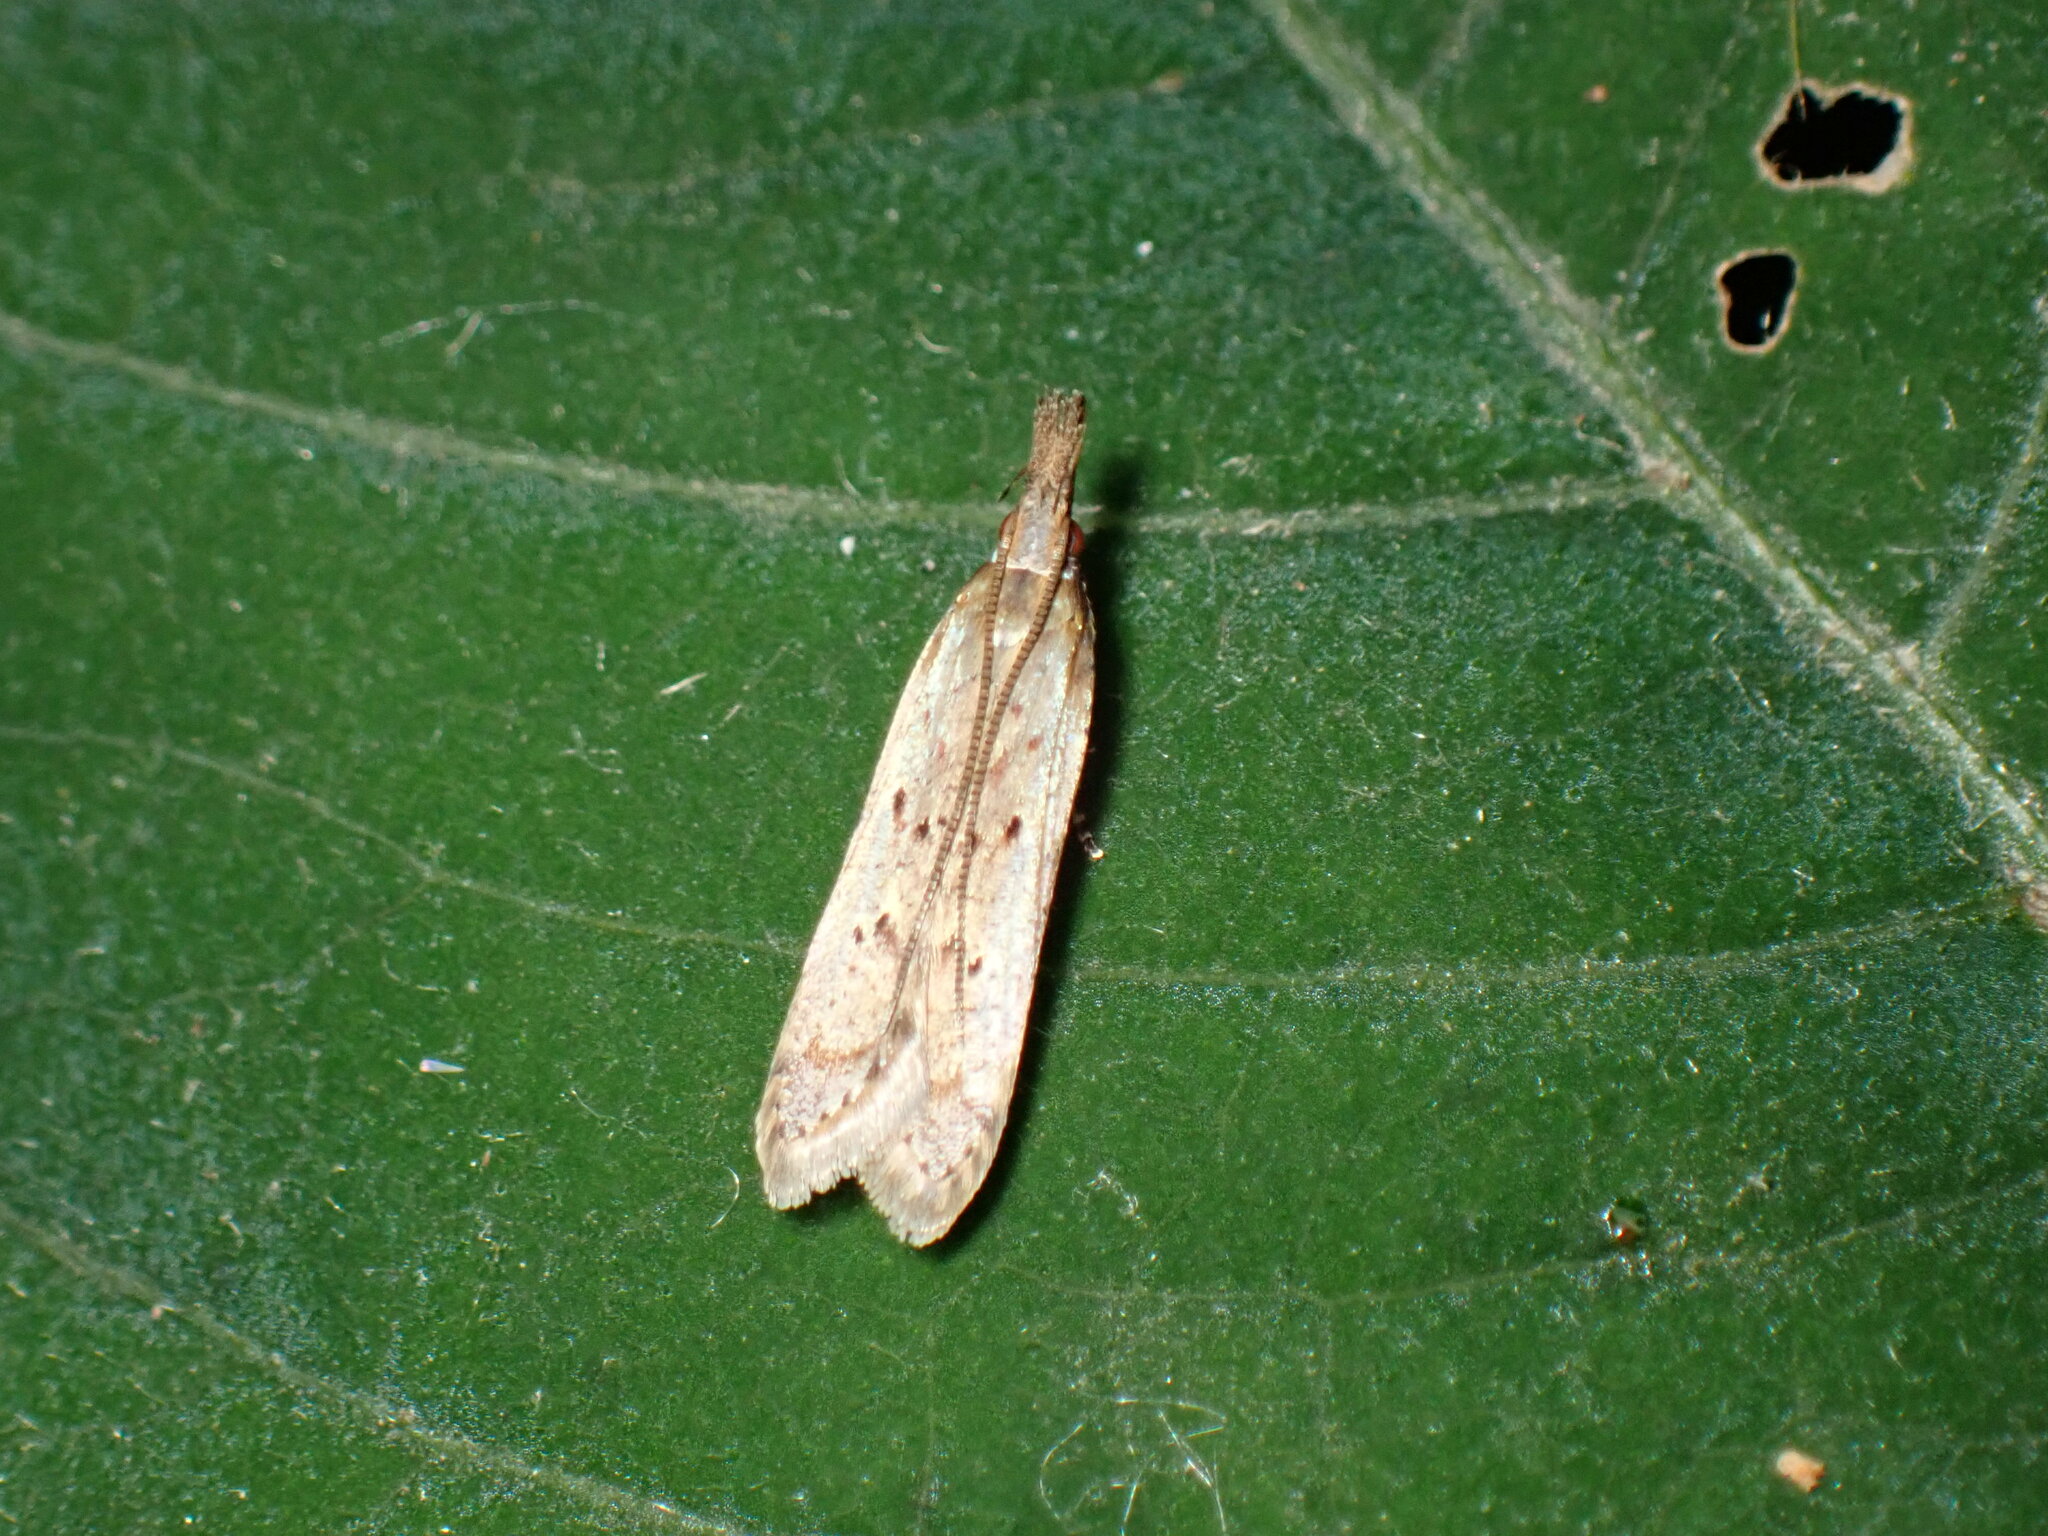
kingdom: Animalia
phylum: Arthropoda
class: Insecta
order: Lepidoptera
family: Gelechiidae
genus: Dichomeris
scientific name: Dichomeris ligulella
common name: Moth
